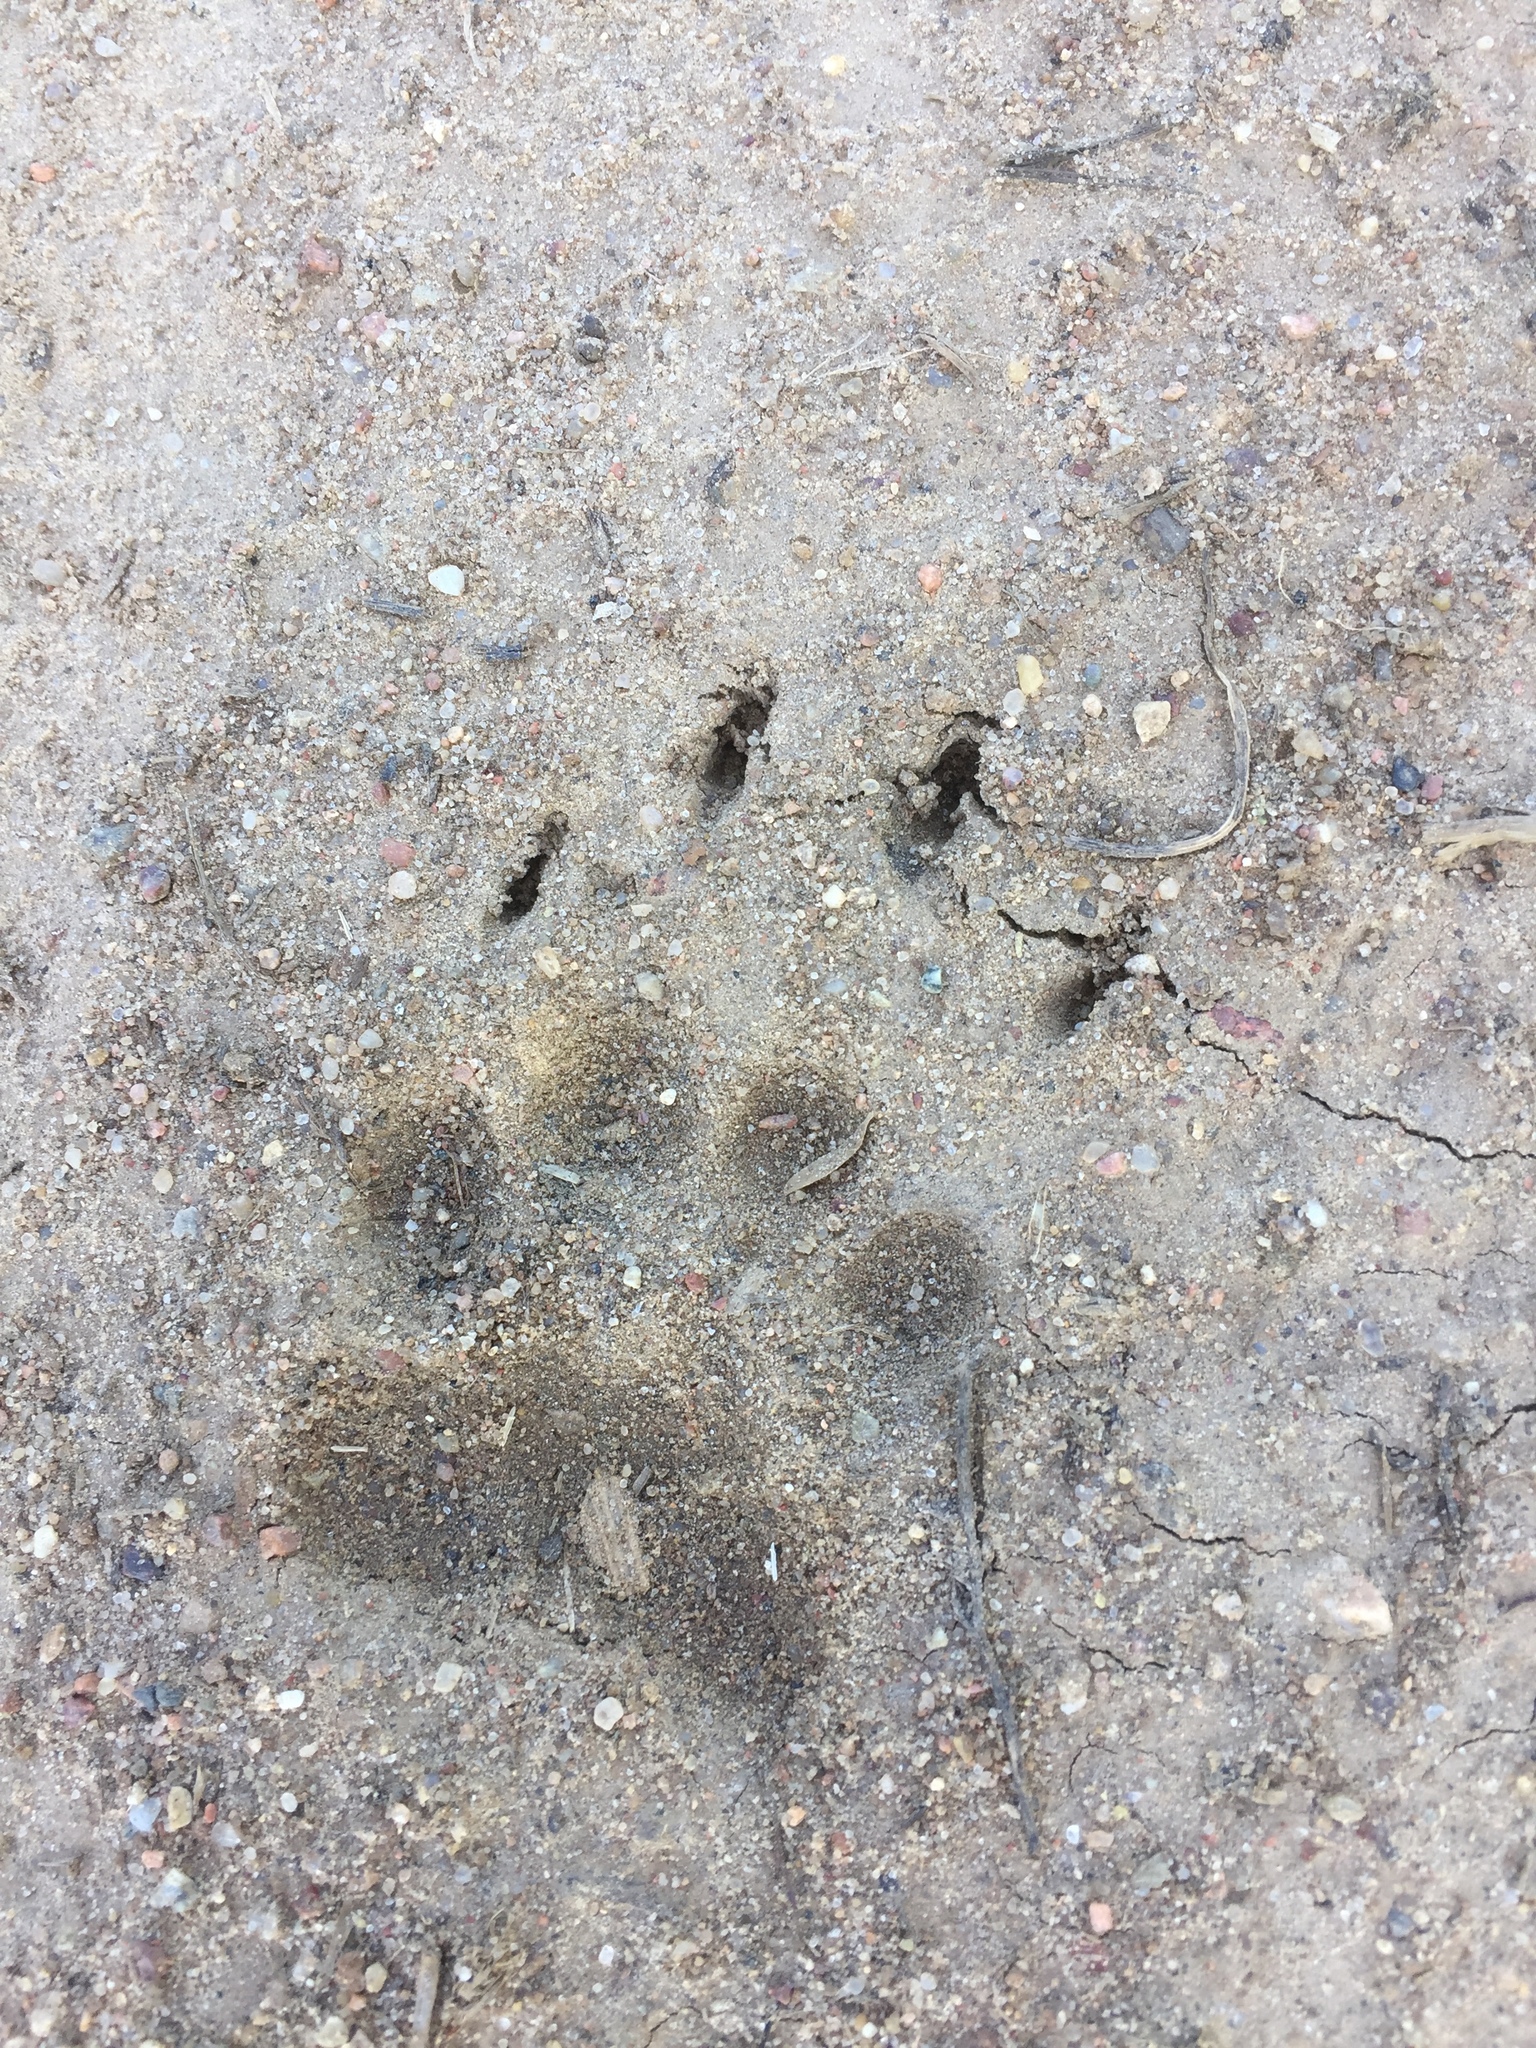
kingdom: Animalia
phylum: Chordata
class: Mammalia
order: Carnivora
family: Mustelidae
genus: Meles
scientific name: Meles meles
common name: Eurasian badger
